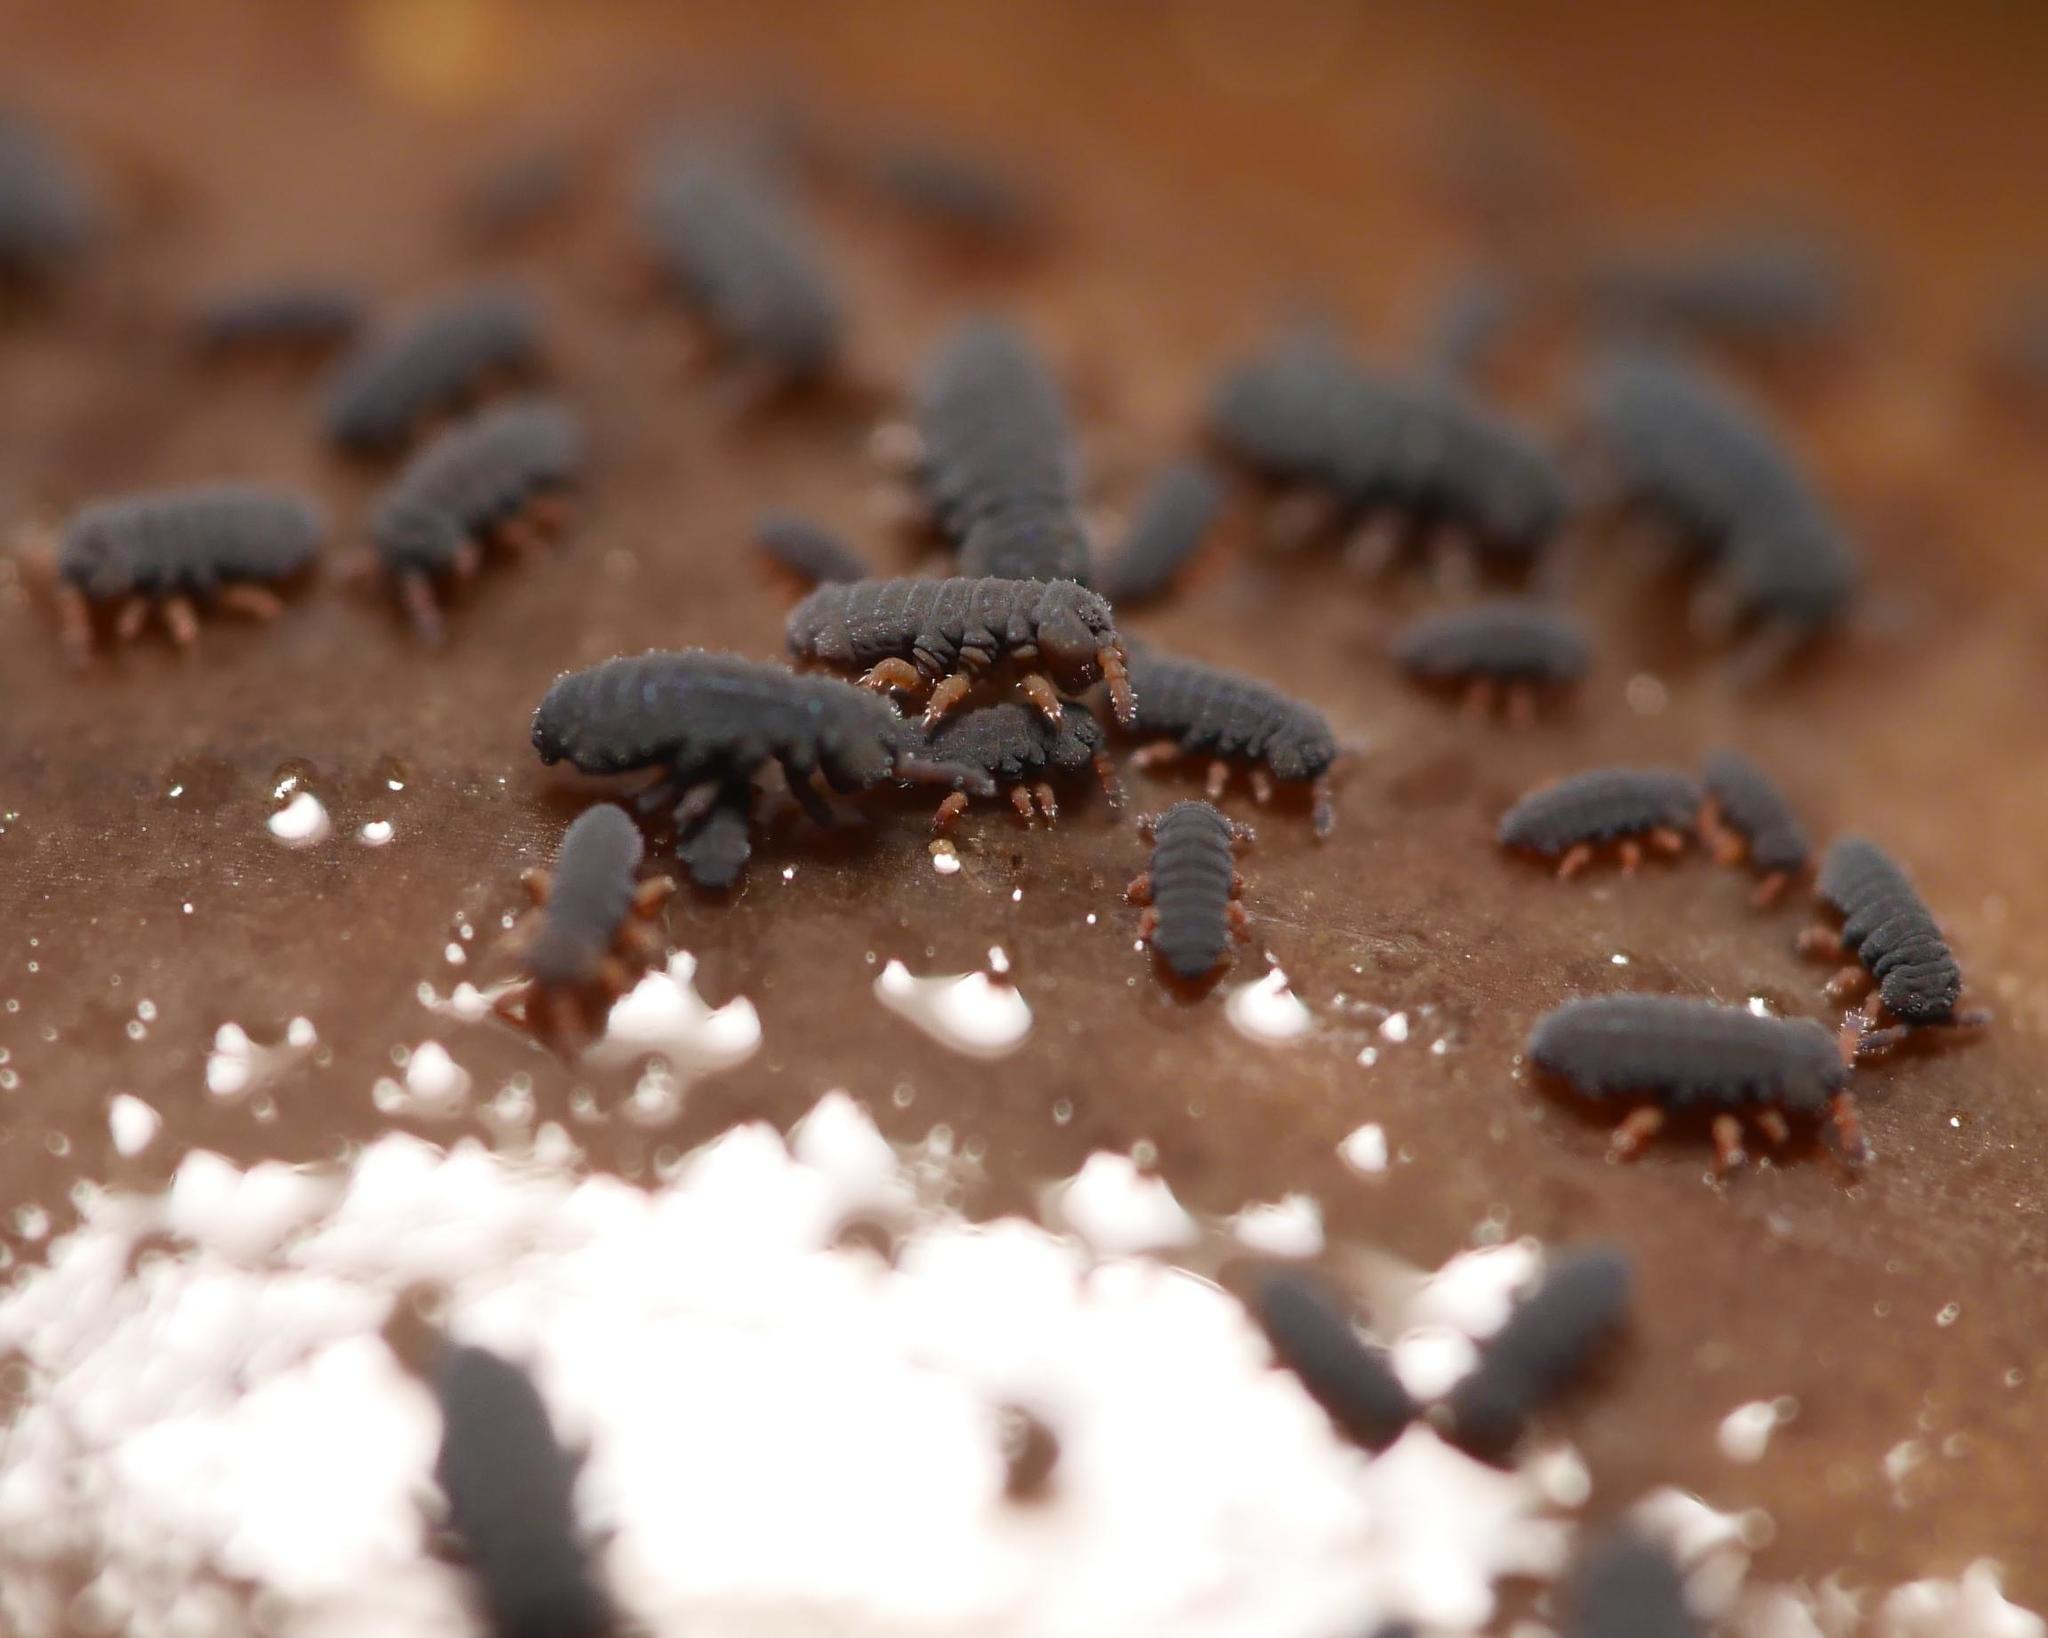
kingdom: Animalia
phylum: Arthropoda
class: Collembola
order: Poduromorpha
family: Poduridae
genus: Podura
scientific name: Podura aquatica
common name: Water springtail
